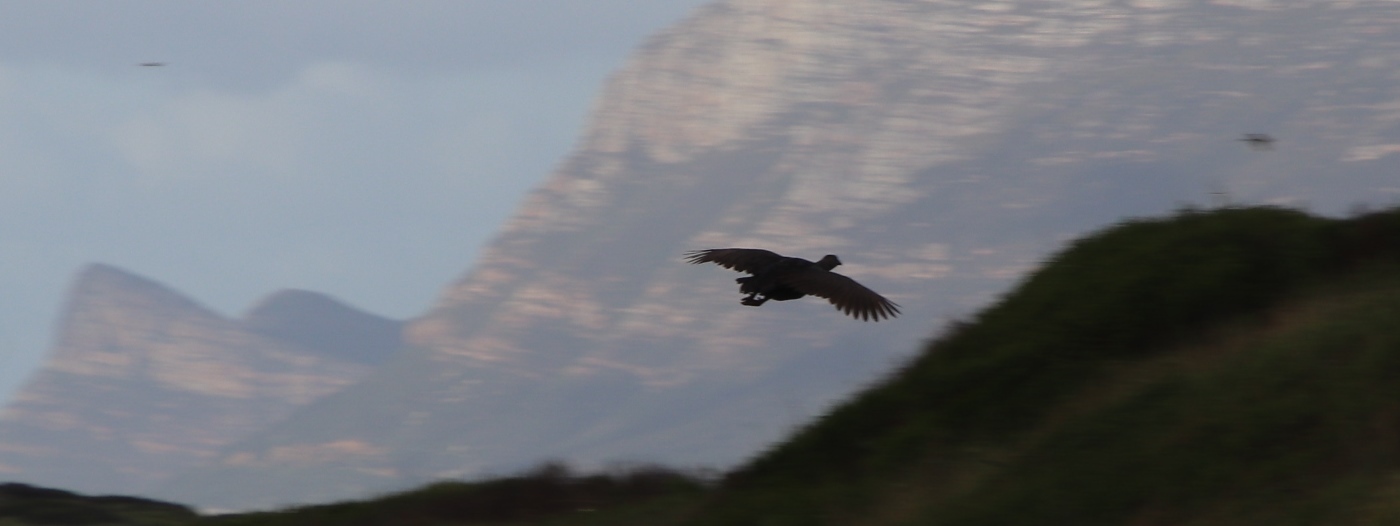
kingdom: Animalia
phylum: Chordata
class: Aves
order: Galliformes
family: Phasianidae
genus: Pternistis
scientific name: Pternistis capensis
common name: Cape spurfowl
